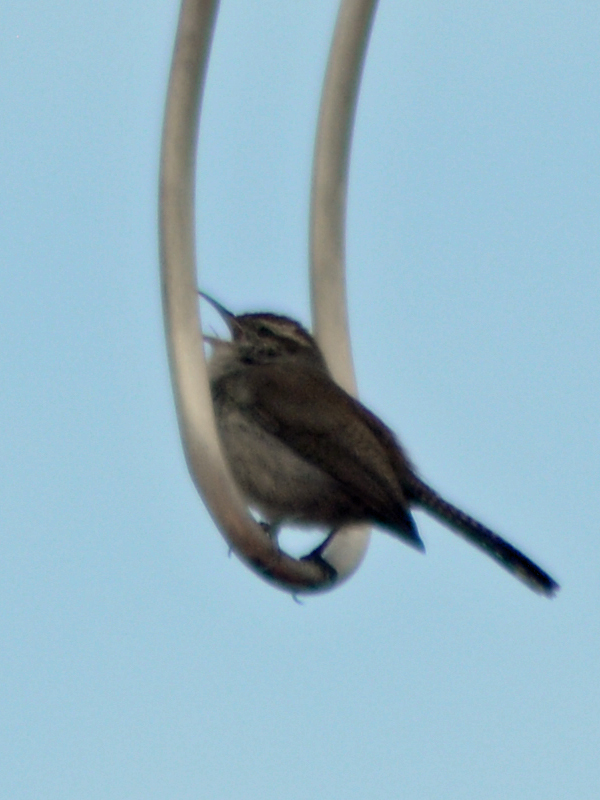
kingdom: Animalia
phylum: Chordata
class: Aves
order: Passeriformes
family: Troglodytidae
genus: Thryomanes
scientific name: Thryomanes bewickii
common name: Bewick's wren
